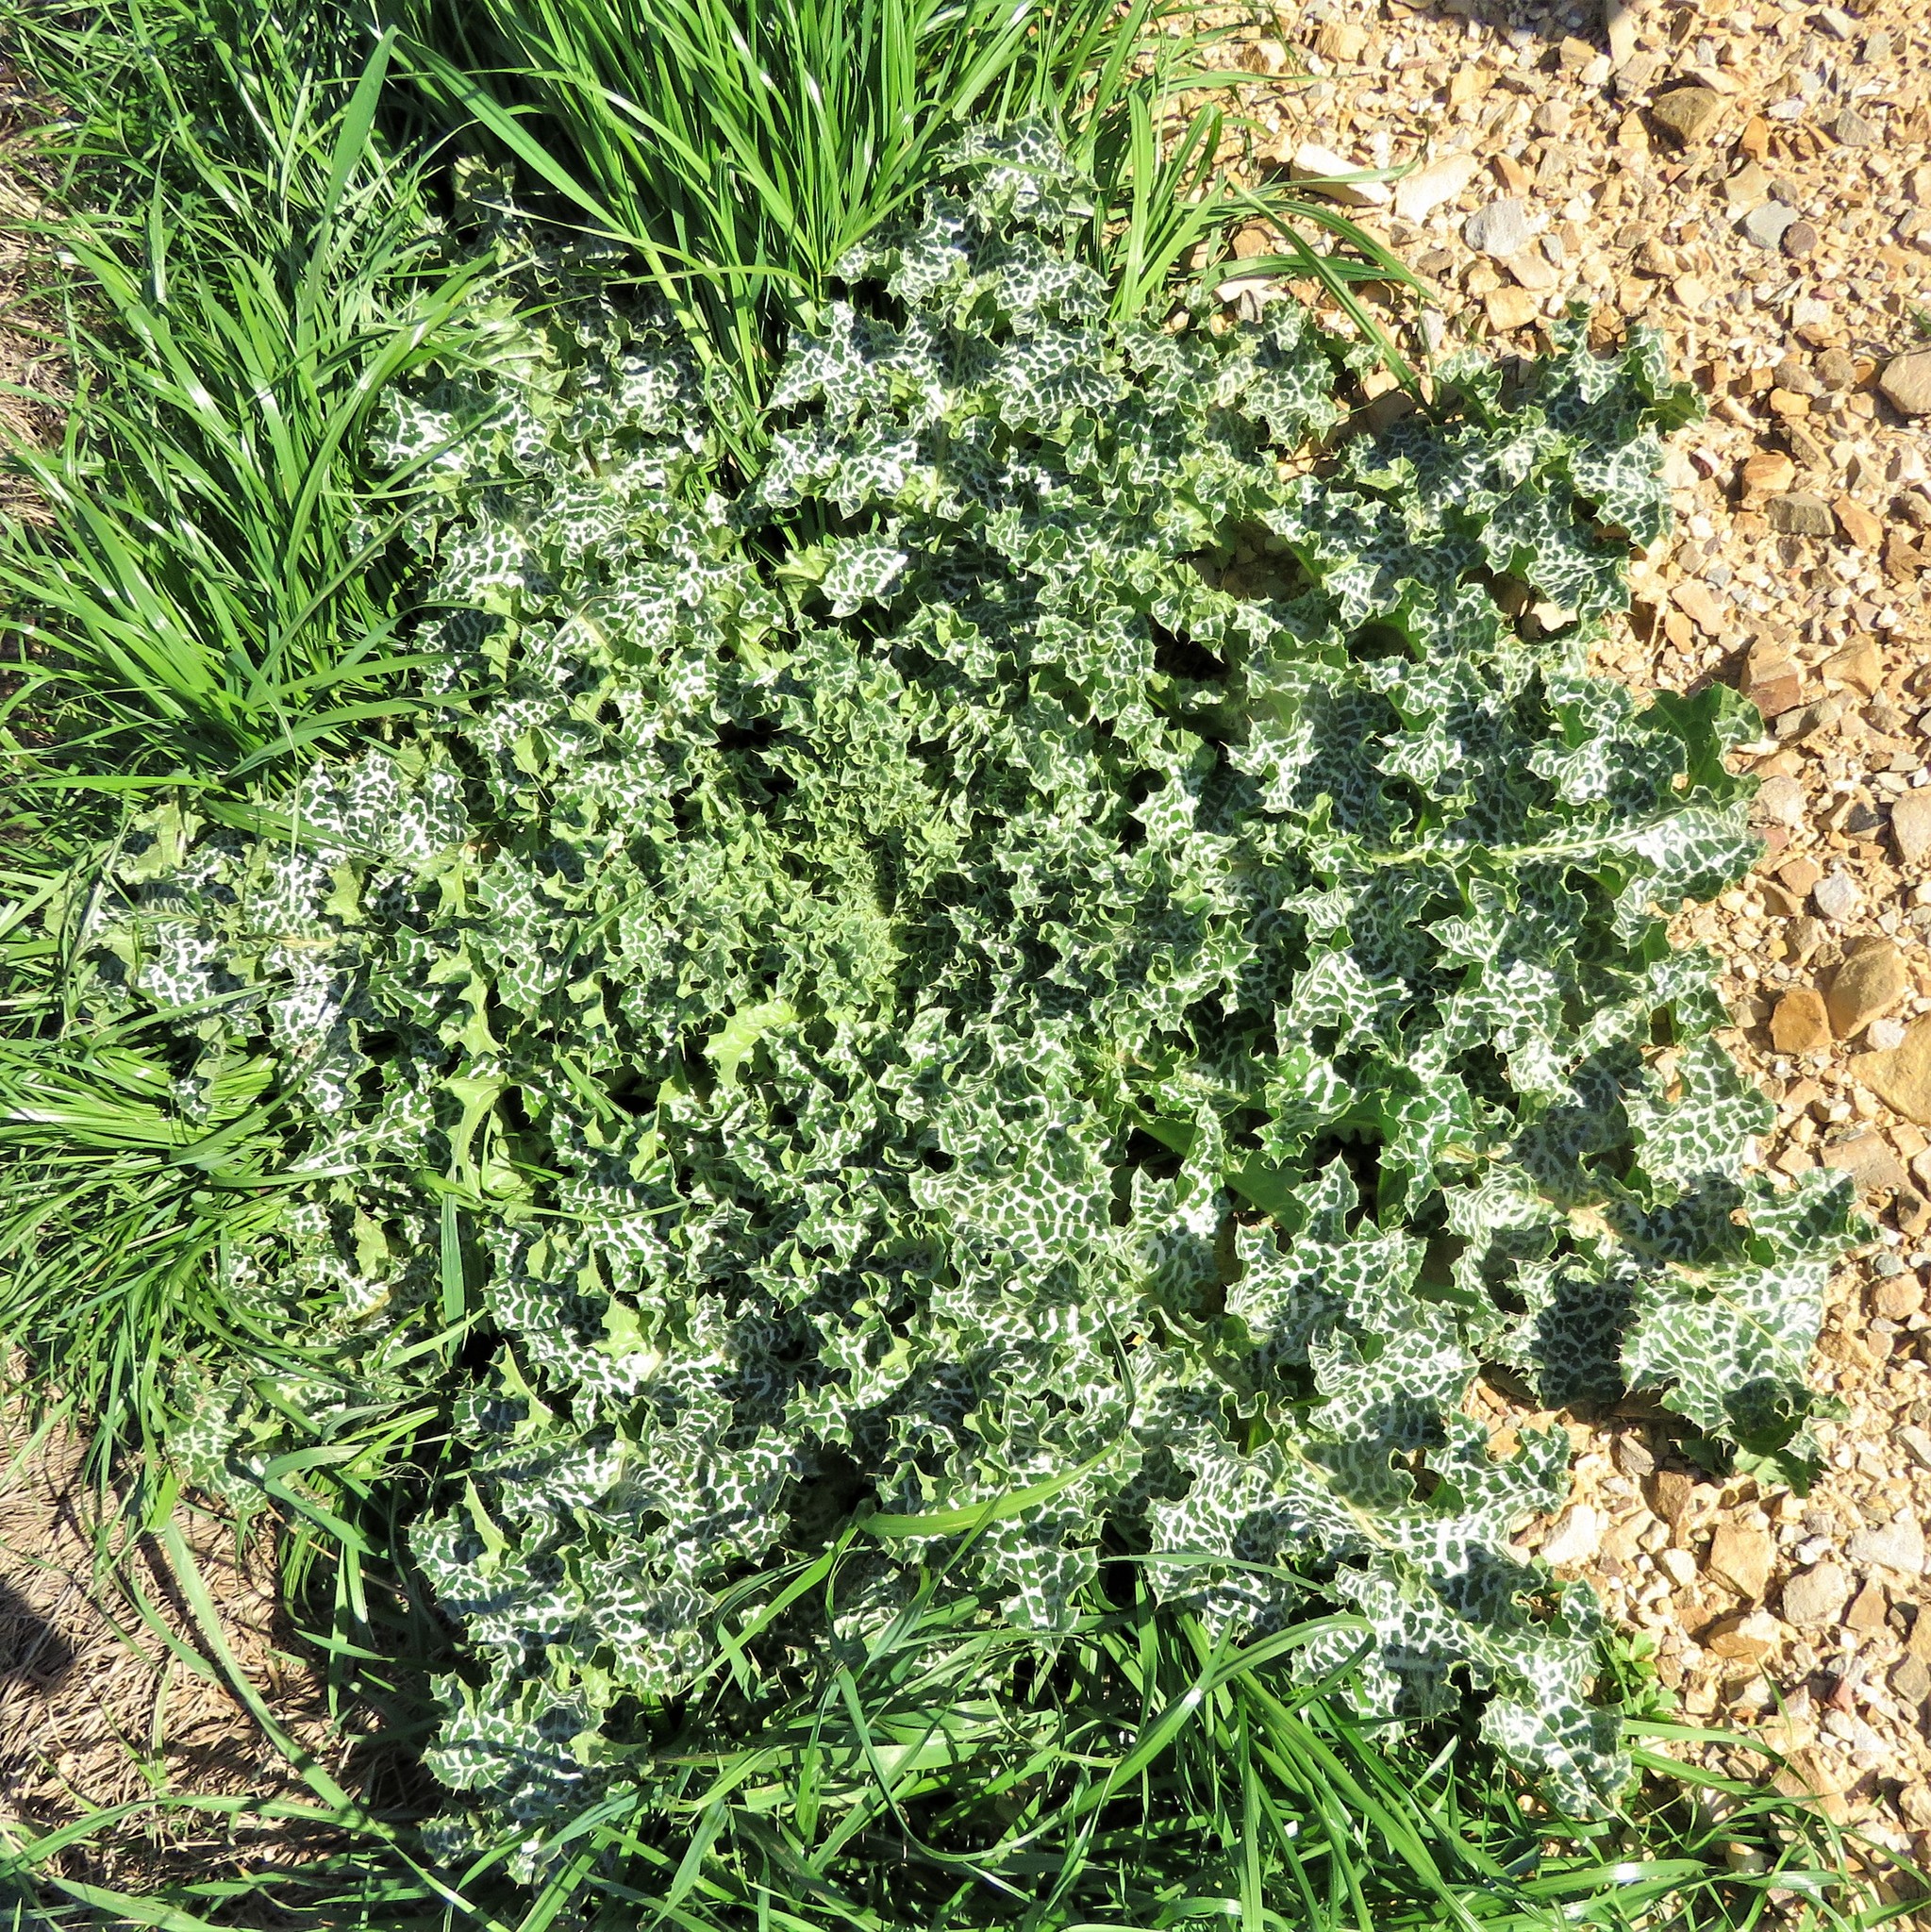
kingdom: Plantae
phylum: Tracheophyta
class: Magnoliopsida
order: Asterales
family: Asteraceae
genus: Silybum
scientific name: Silybum marianum
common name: Milk thistle
